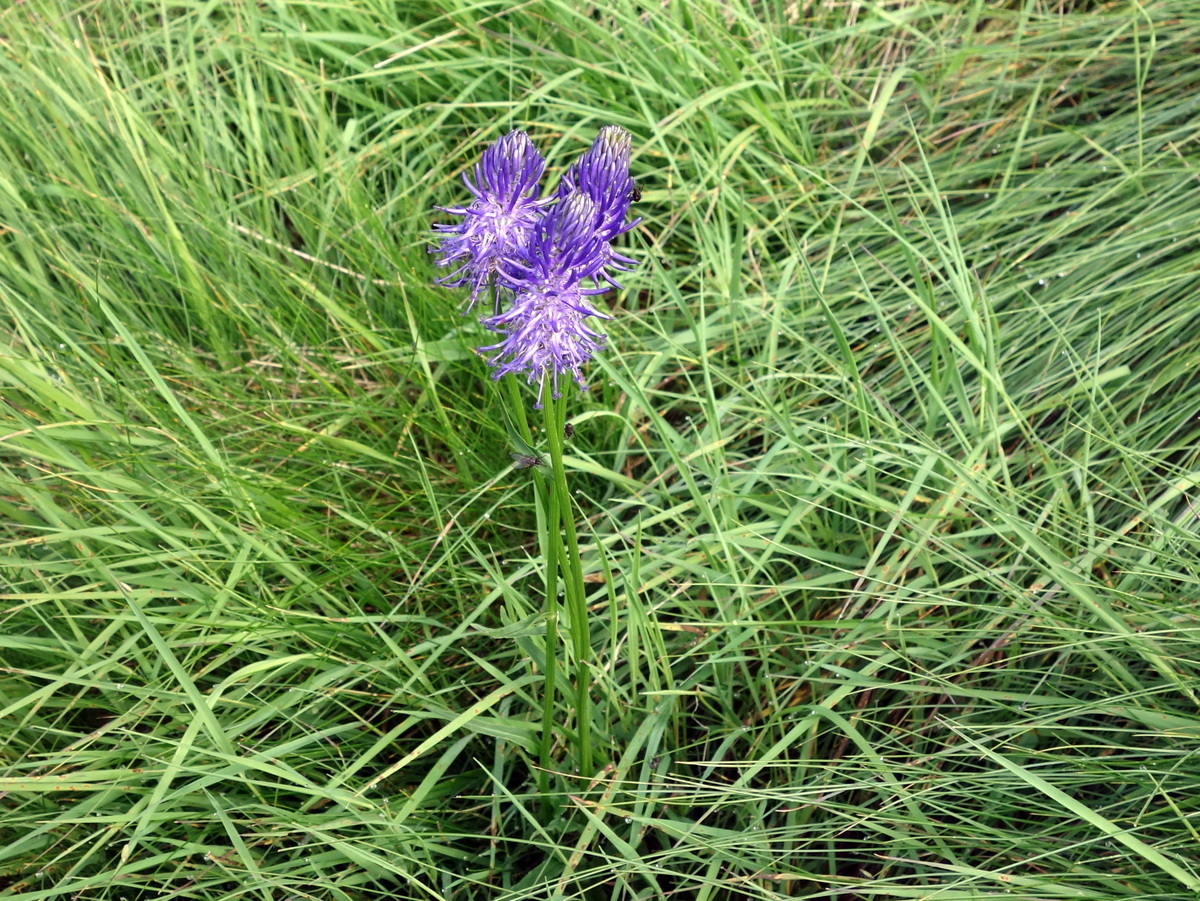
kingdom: Plantae
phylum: Tracheophyta
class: Magnoliopsida
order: Asterales
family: Campanulaceae
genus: Phyteuma
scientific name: Phyteuma betonicifolium
